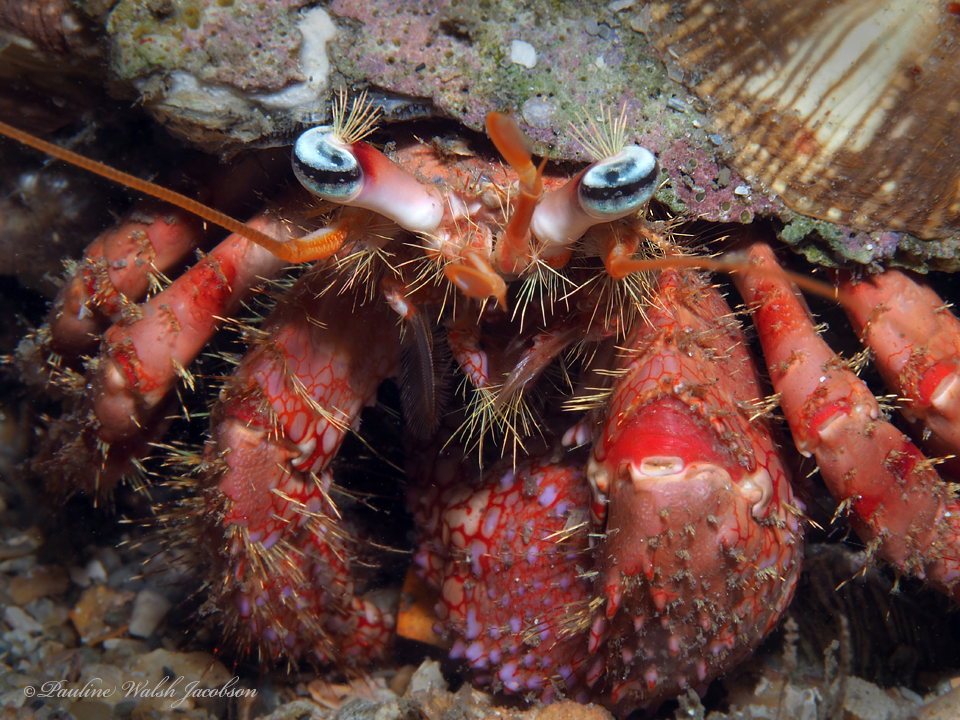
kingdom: Animalia
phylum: Arthropoda
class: Malacostraca
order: Decapoda
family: Diogenidae
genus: Dardanus
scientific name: Dardanus fucosus
